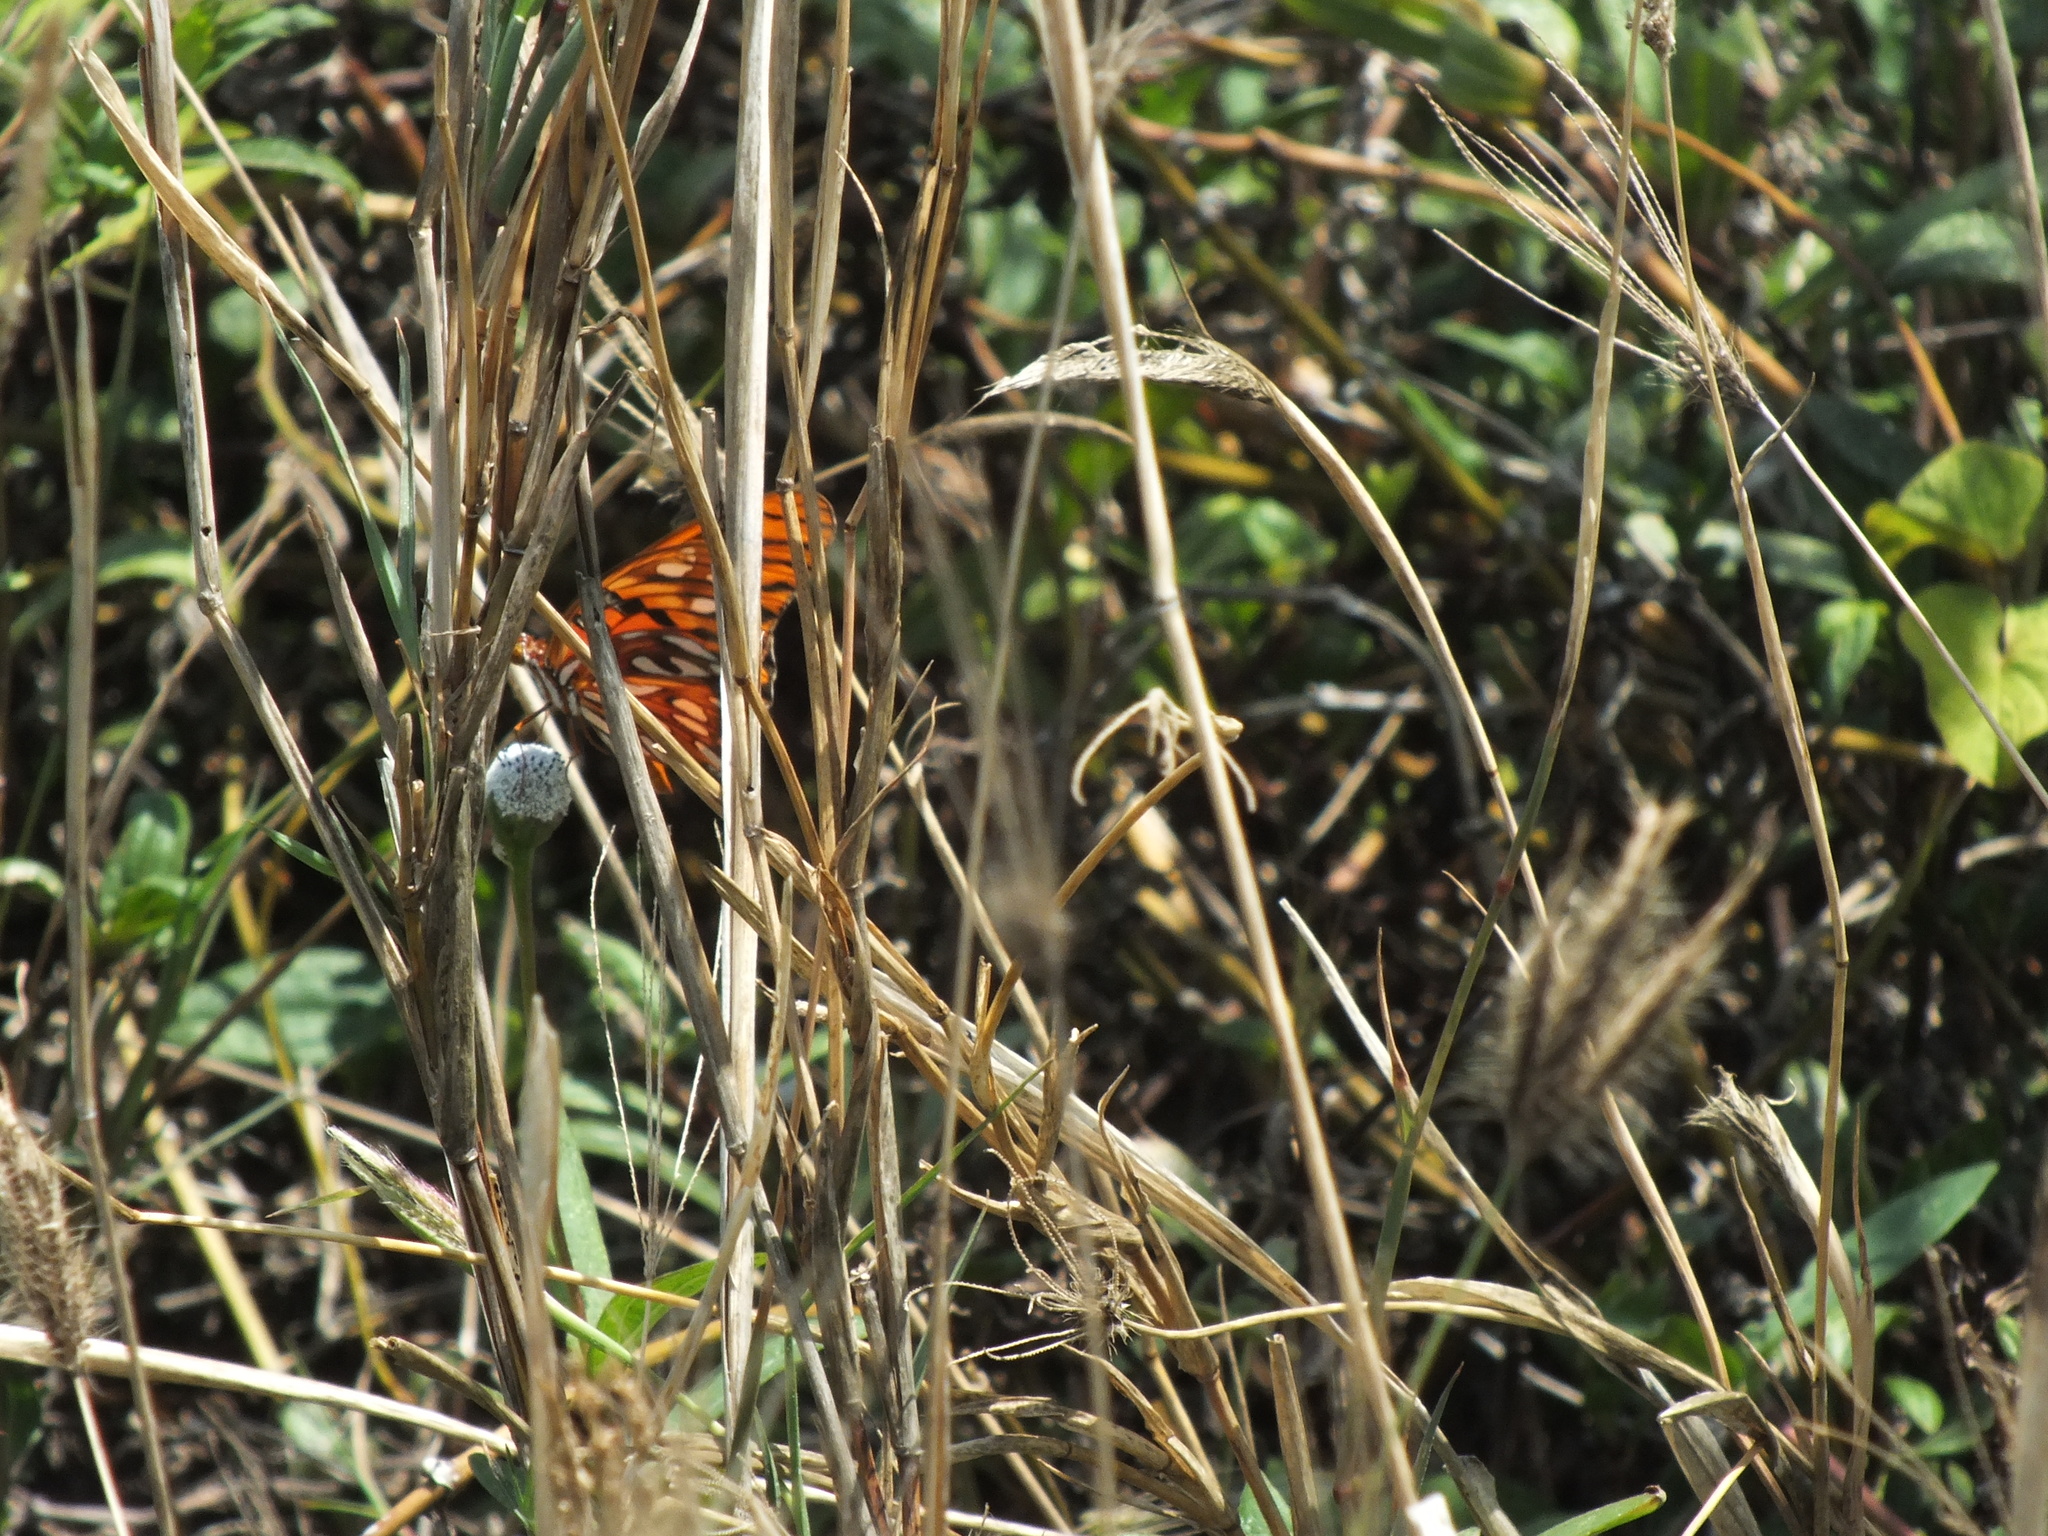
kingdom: Animalia
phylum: Arthropoda
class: Insecta
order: Lepidoptera
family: Nymphalidae
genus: Dione
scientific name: Dione vanillae
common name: Gulf fritillary
